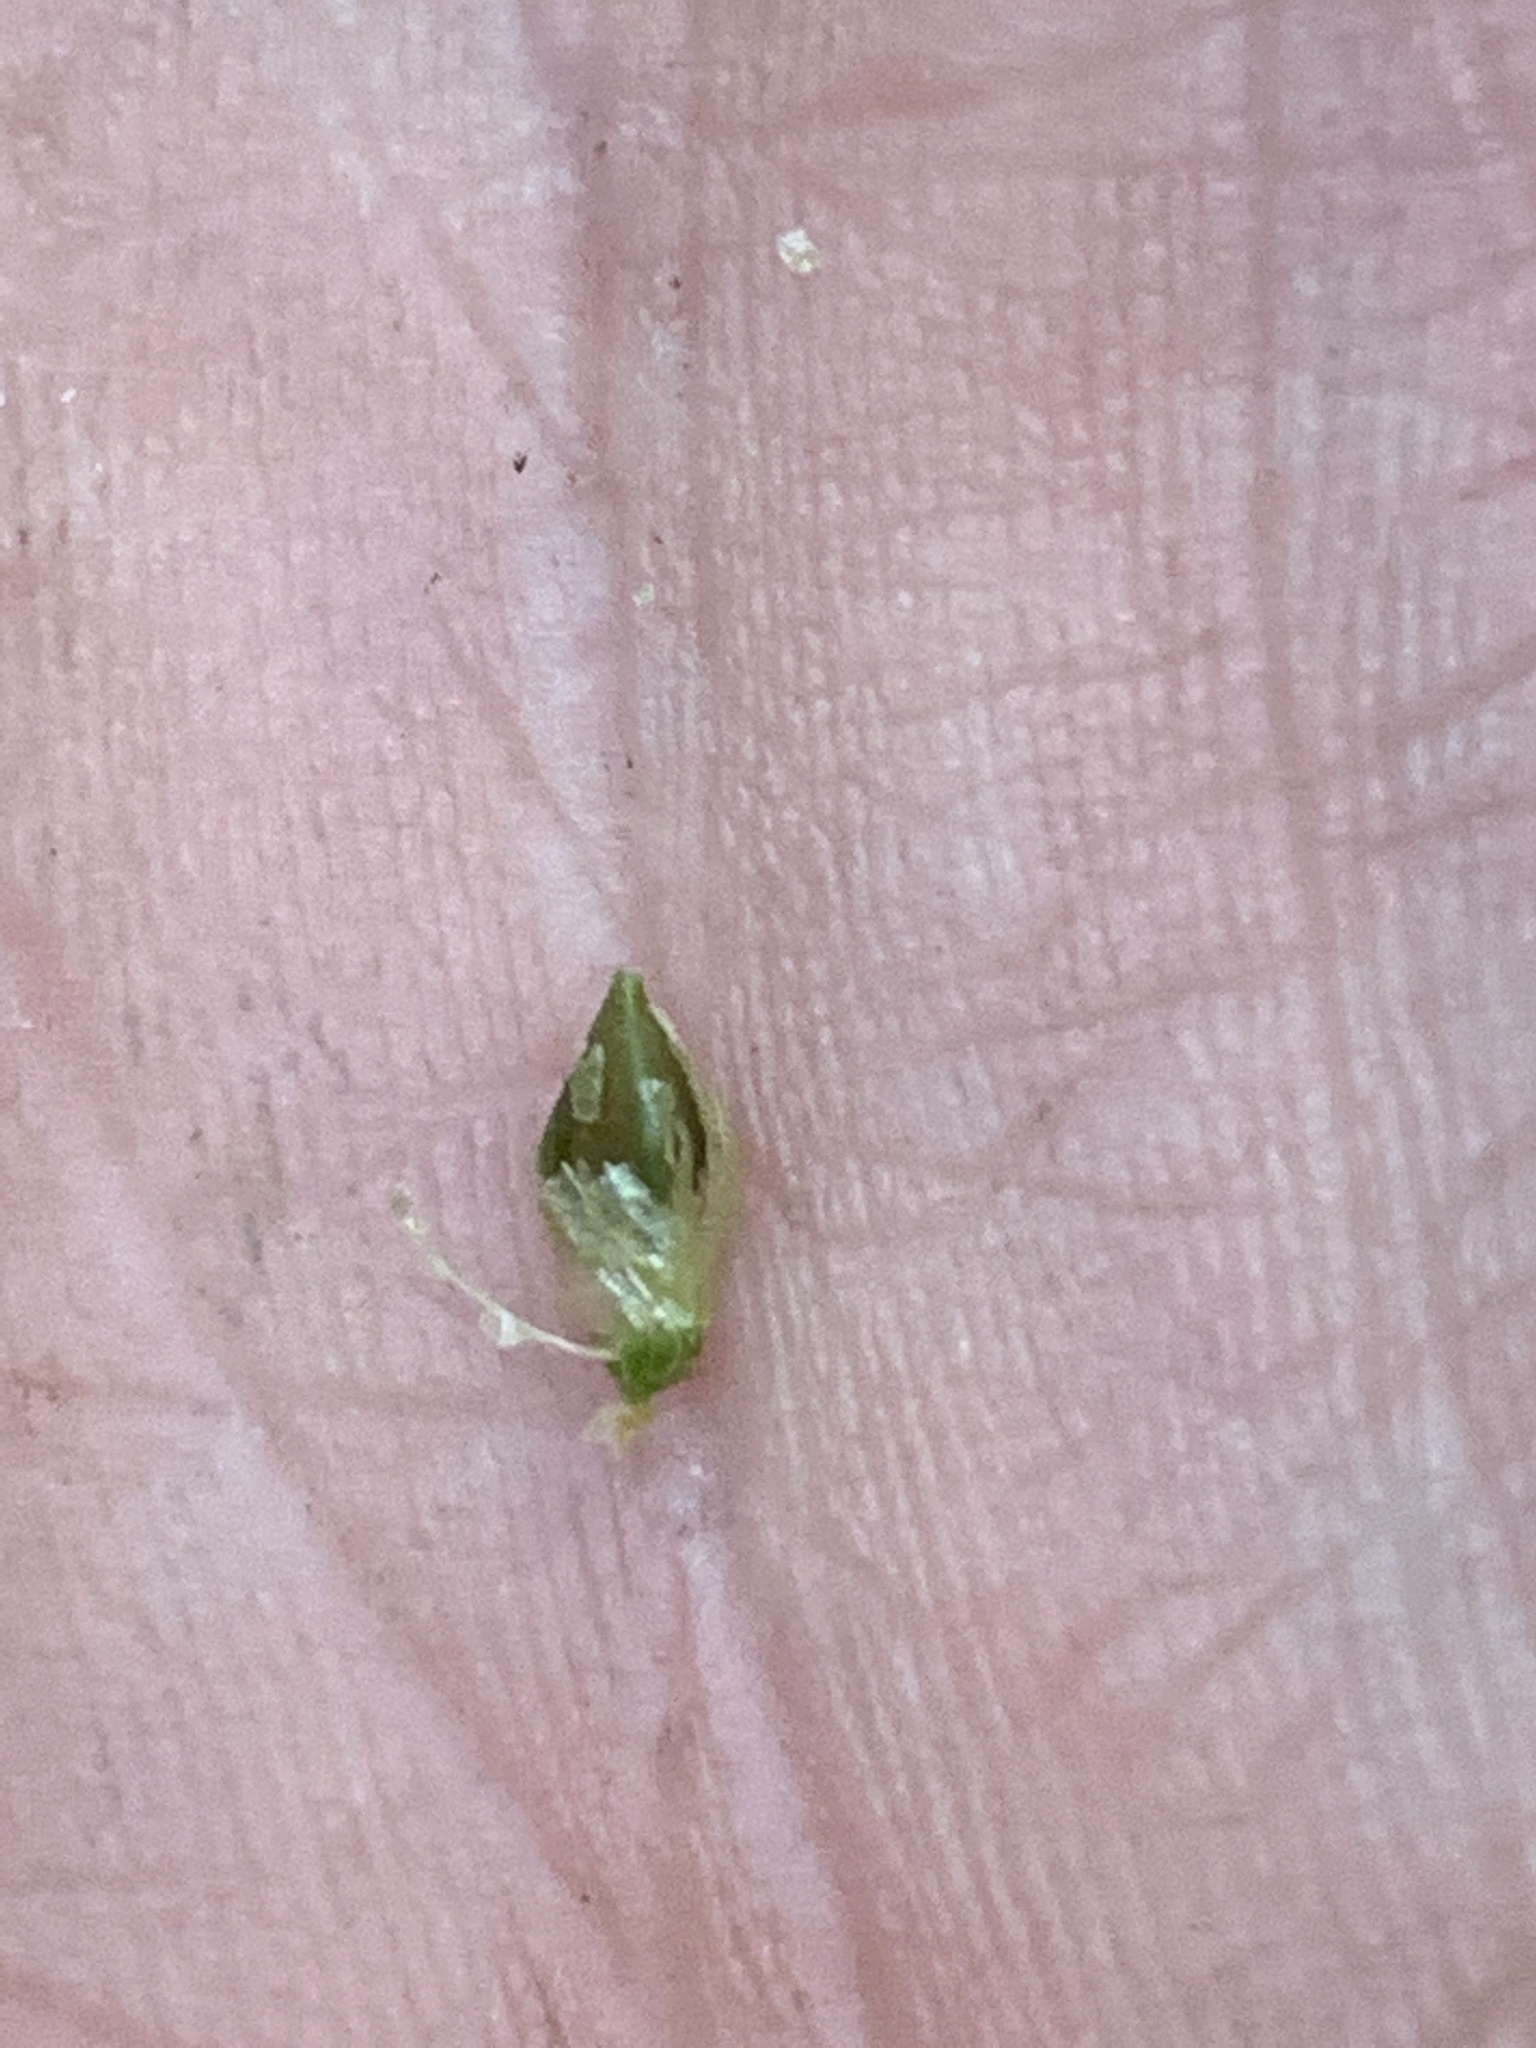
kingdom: Plantae
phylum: Tracheophyta
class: Liliopsida
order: Poales
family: Cyperaceae
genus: Carex
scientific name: Carex lupulina
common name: Hop sedge
